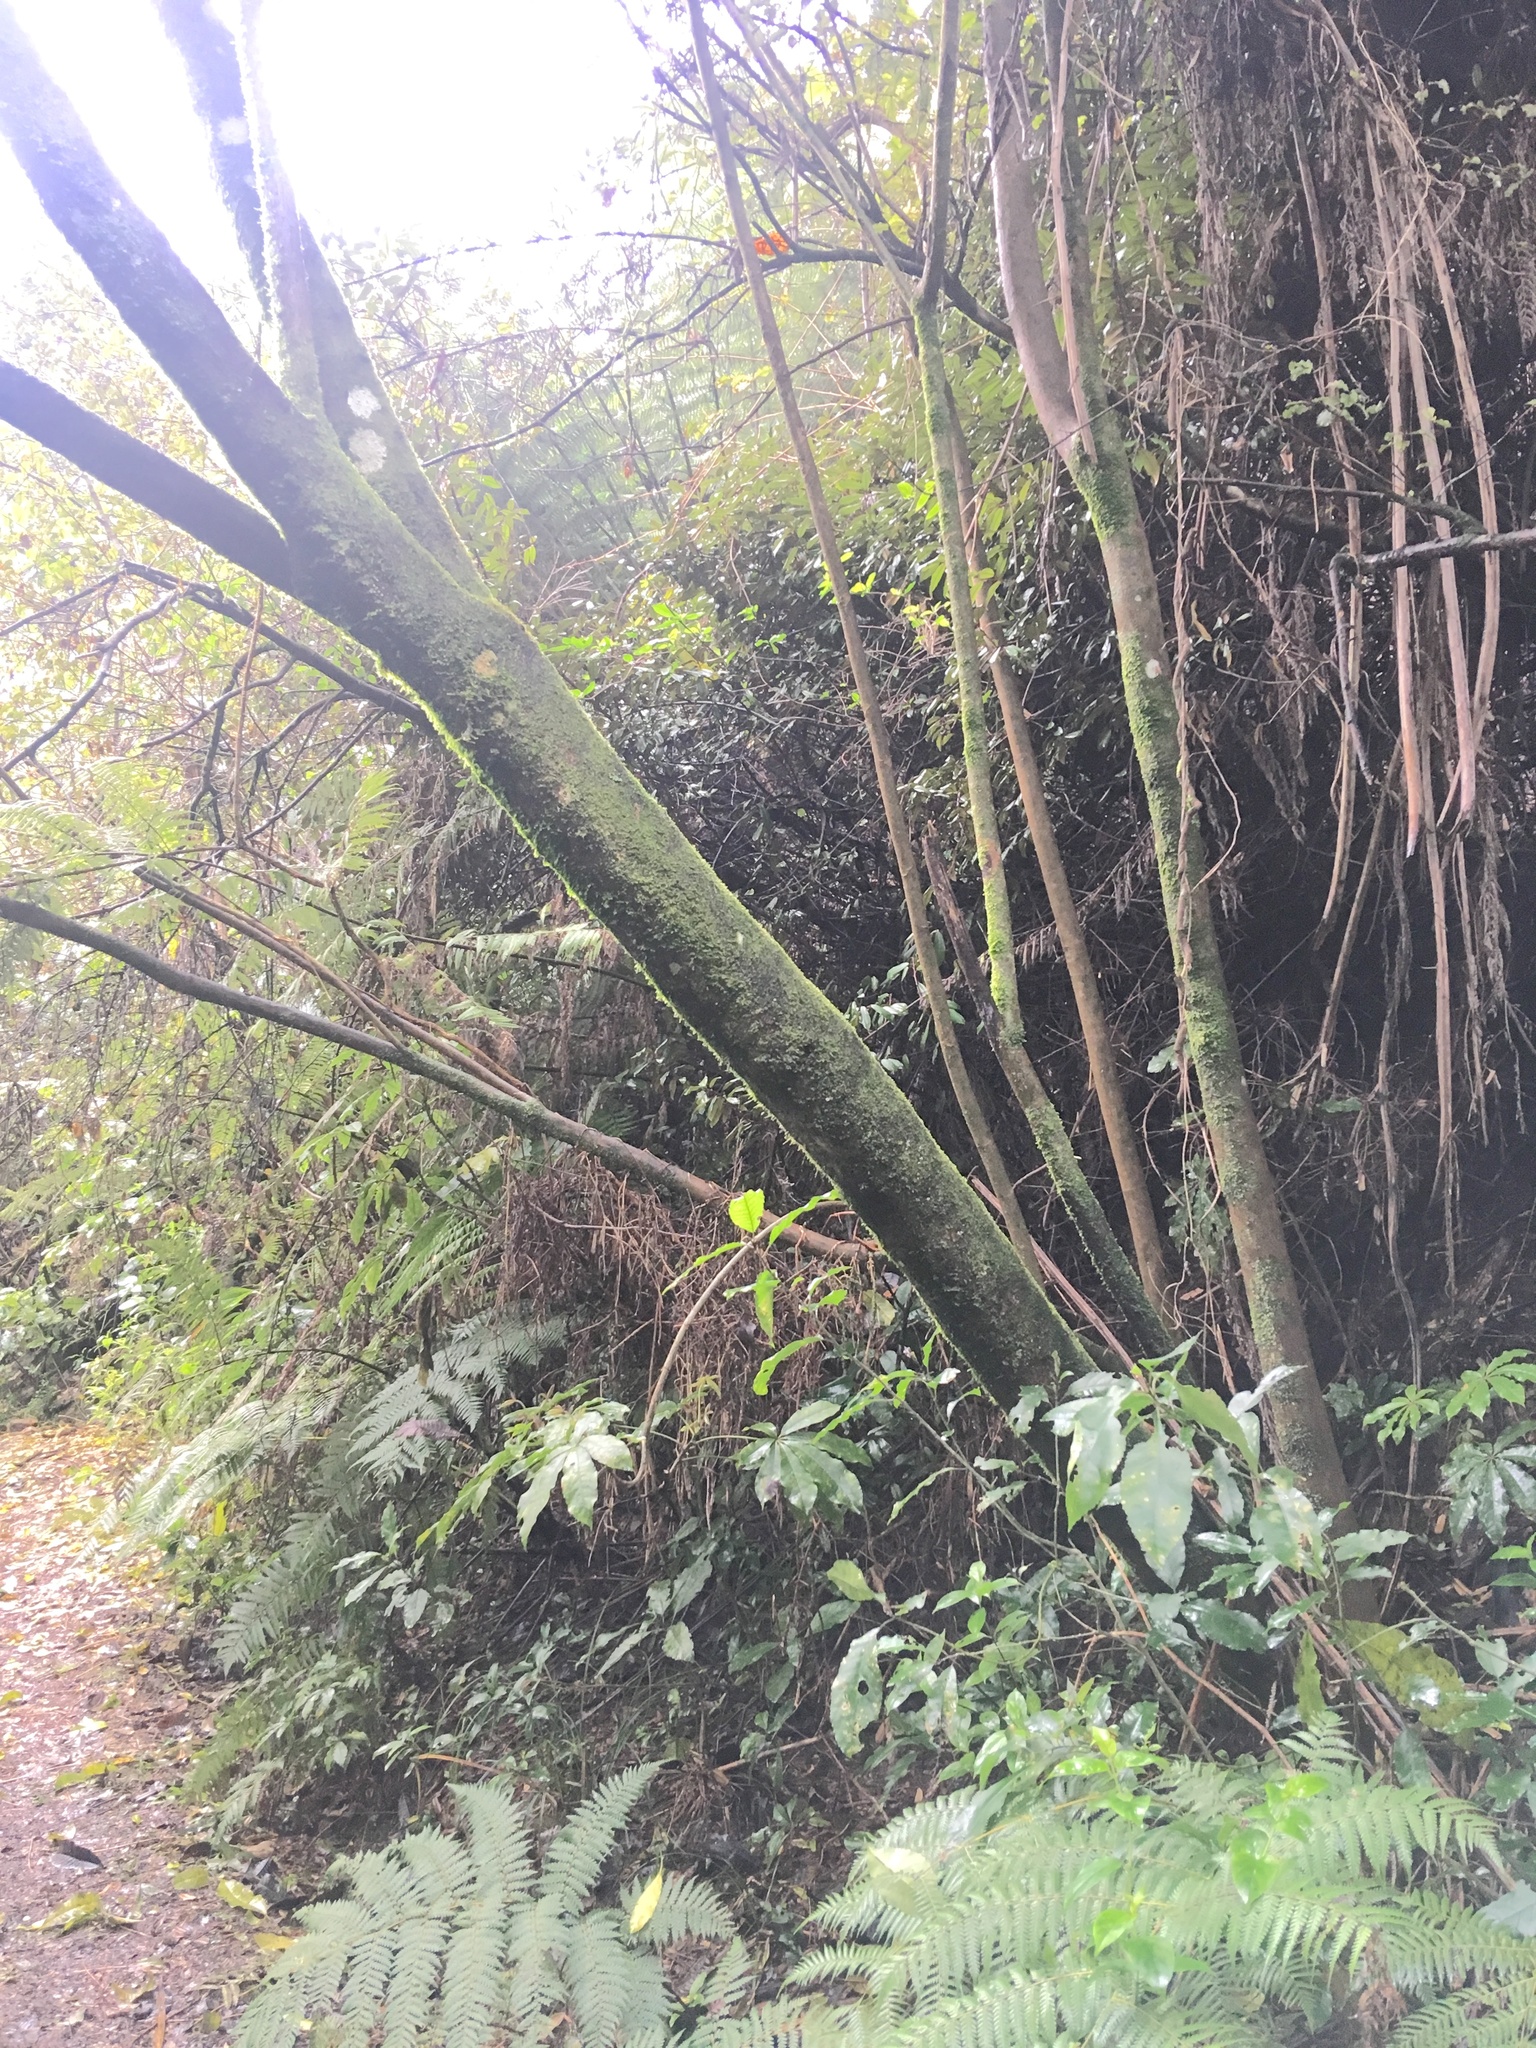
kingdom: Plantae
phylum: Tracheophyta
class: Magnoliopsida
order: Rosales
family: Elaeagnaceae
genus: Elaeagnus
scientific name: Elaeagnus reflexa
